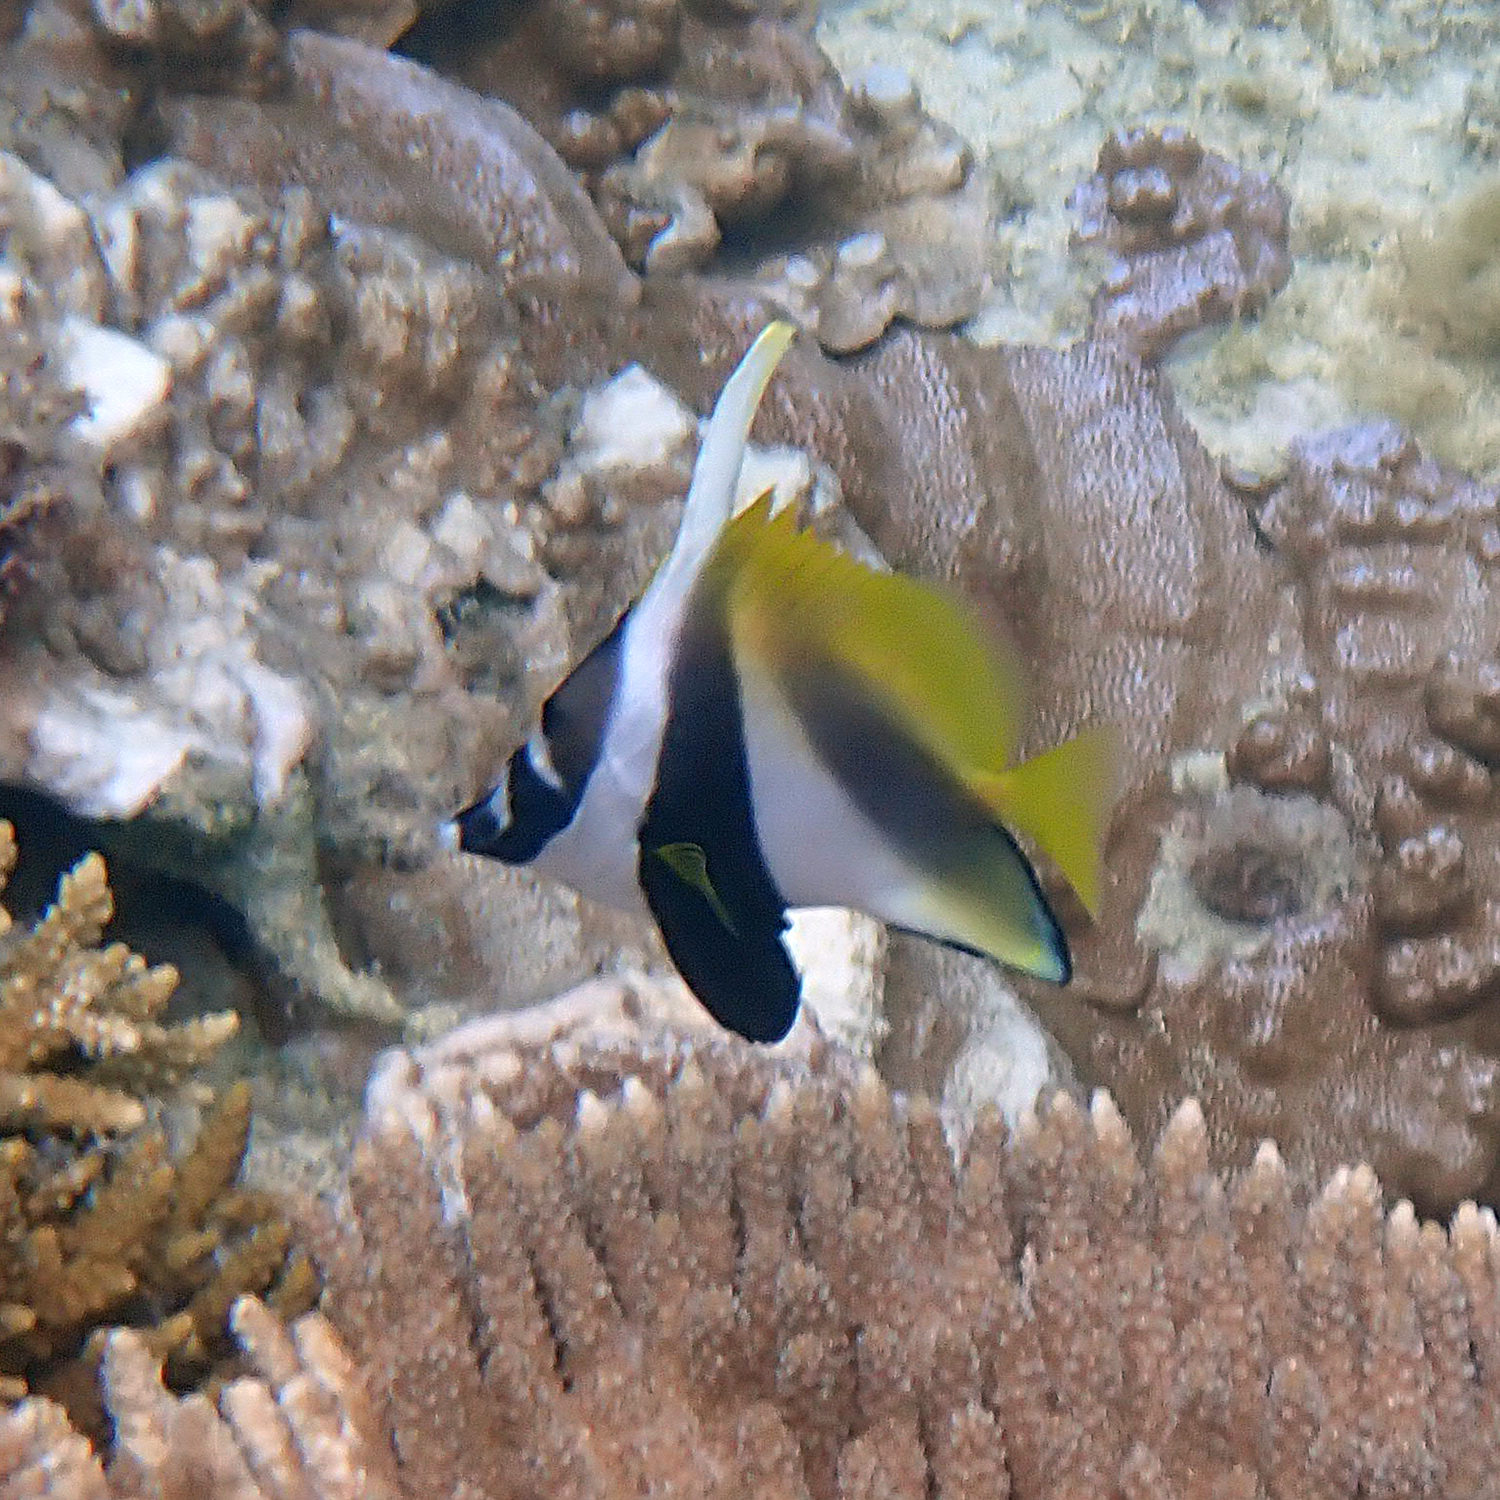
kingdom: Animalia
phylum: Chordata
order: Perciformes
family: Chaetodontidae
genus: Heniochus
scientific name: Heniochus monoceros
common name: Masked bannerfish
